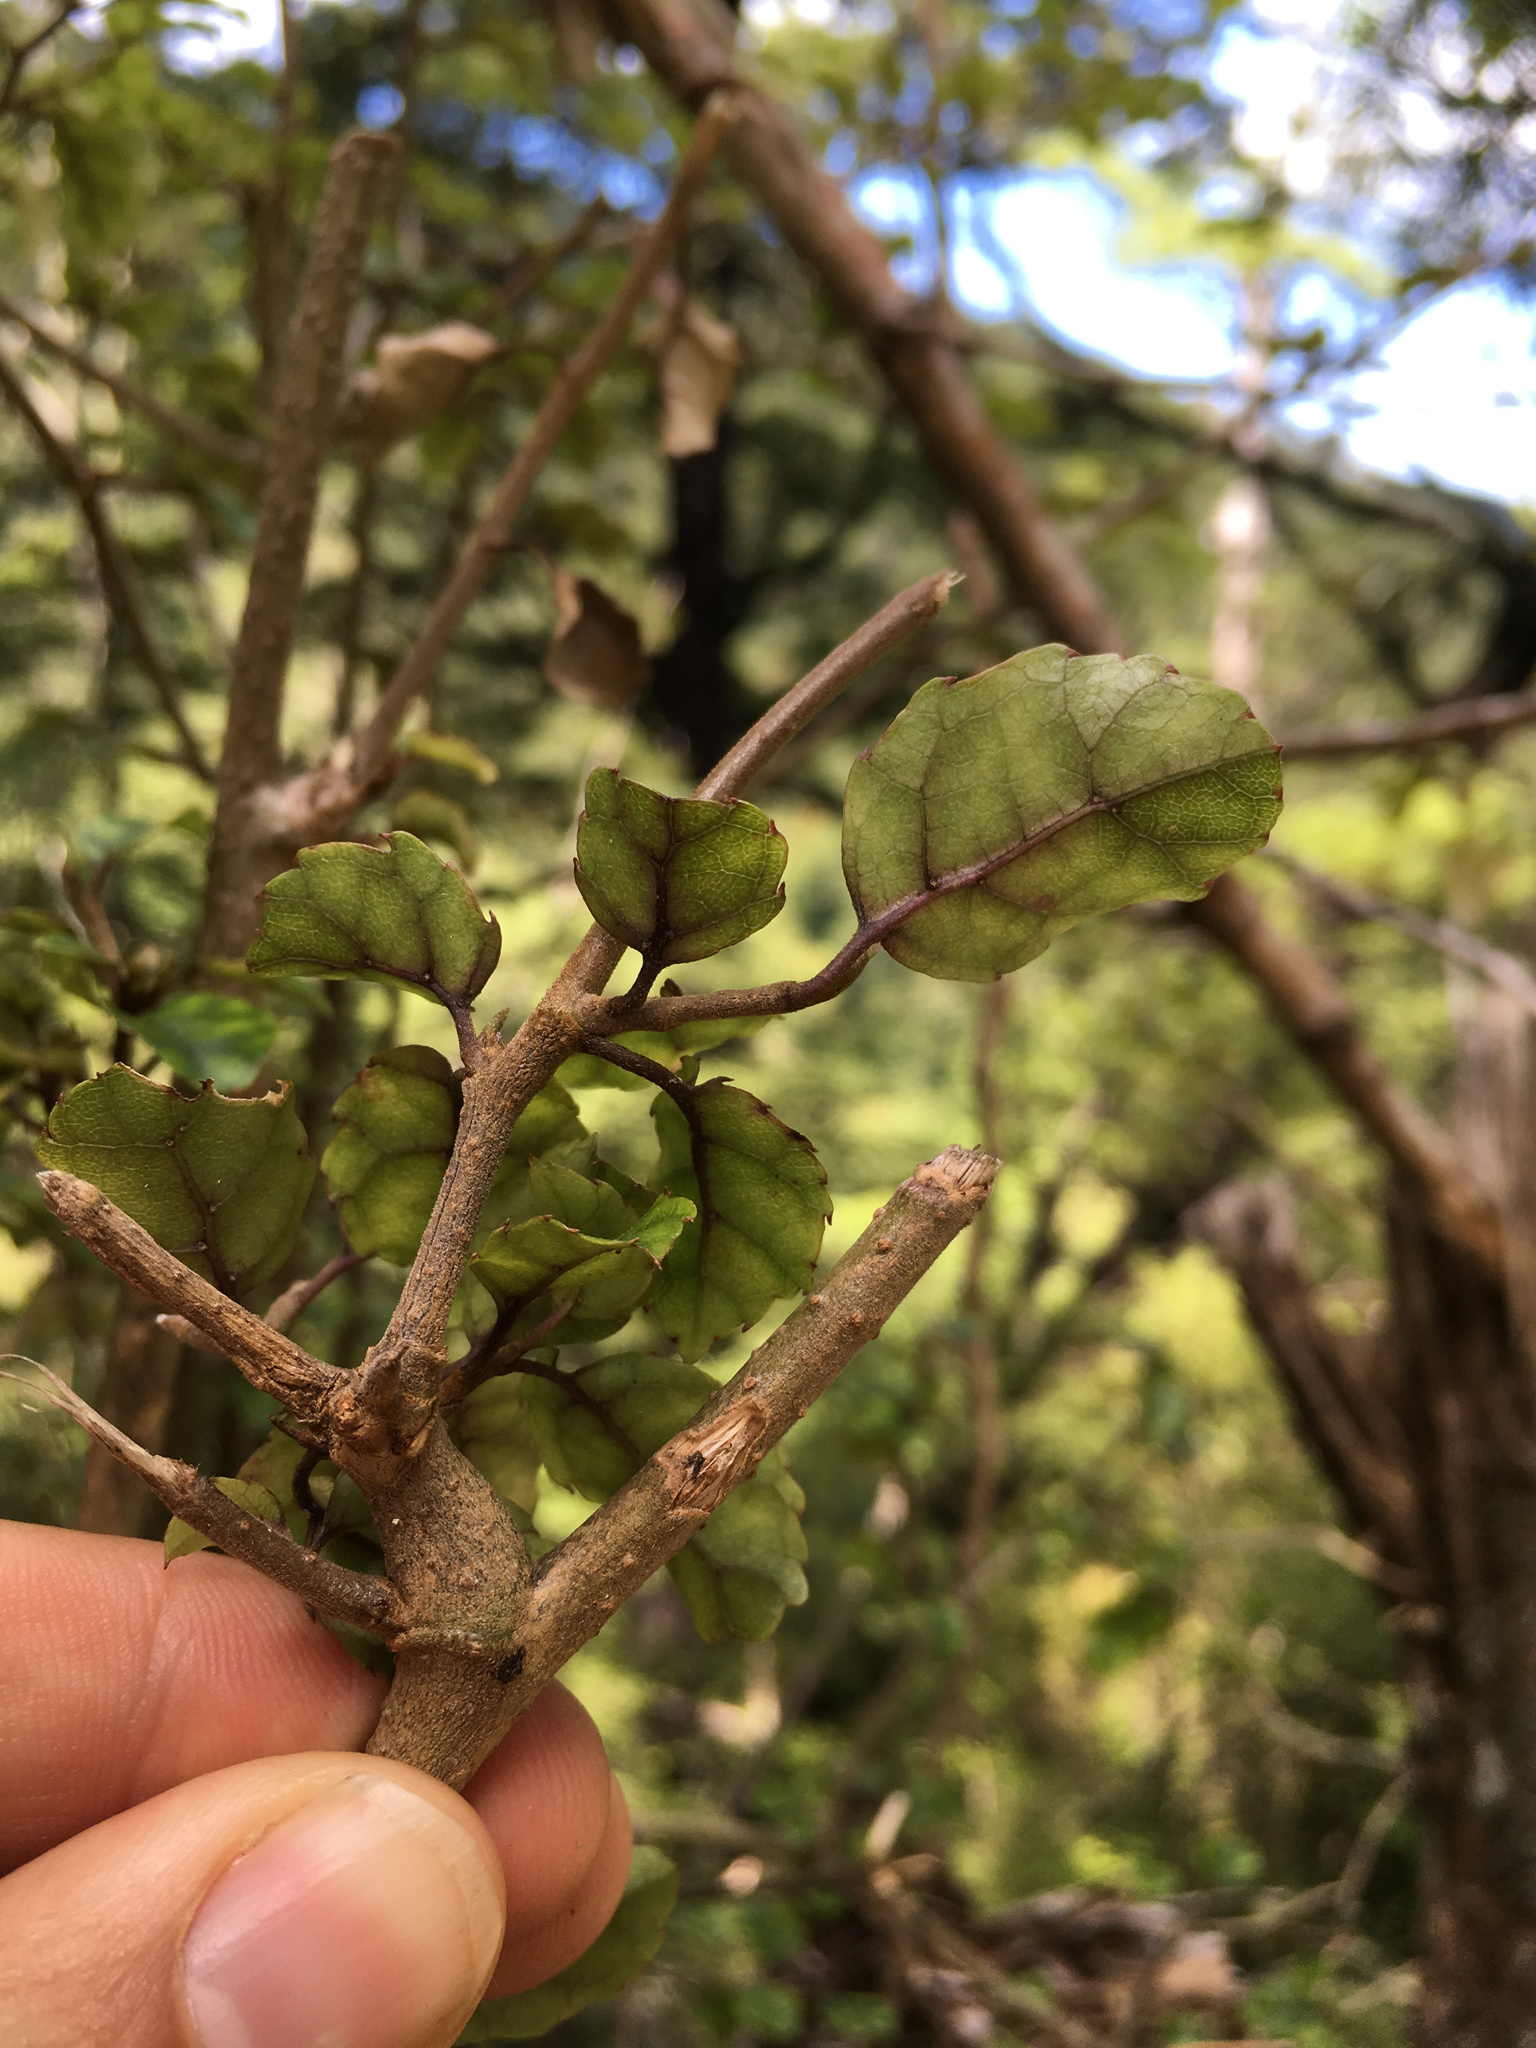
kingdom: Plantae
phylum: Tracheophyta
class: Magnoliopsida
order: Asterales
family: Rousseaceae
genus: Carpodetus
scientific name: Carpodetus serratus
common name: White mapau
